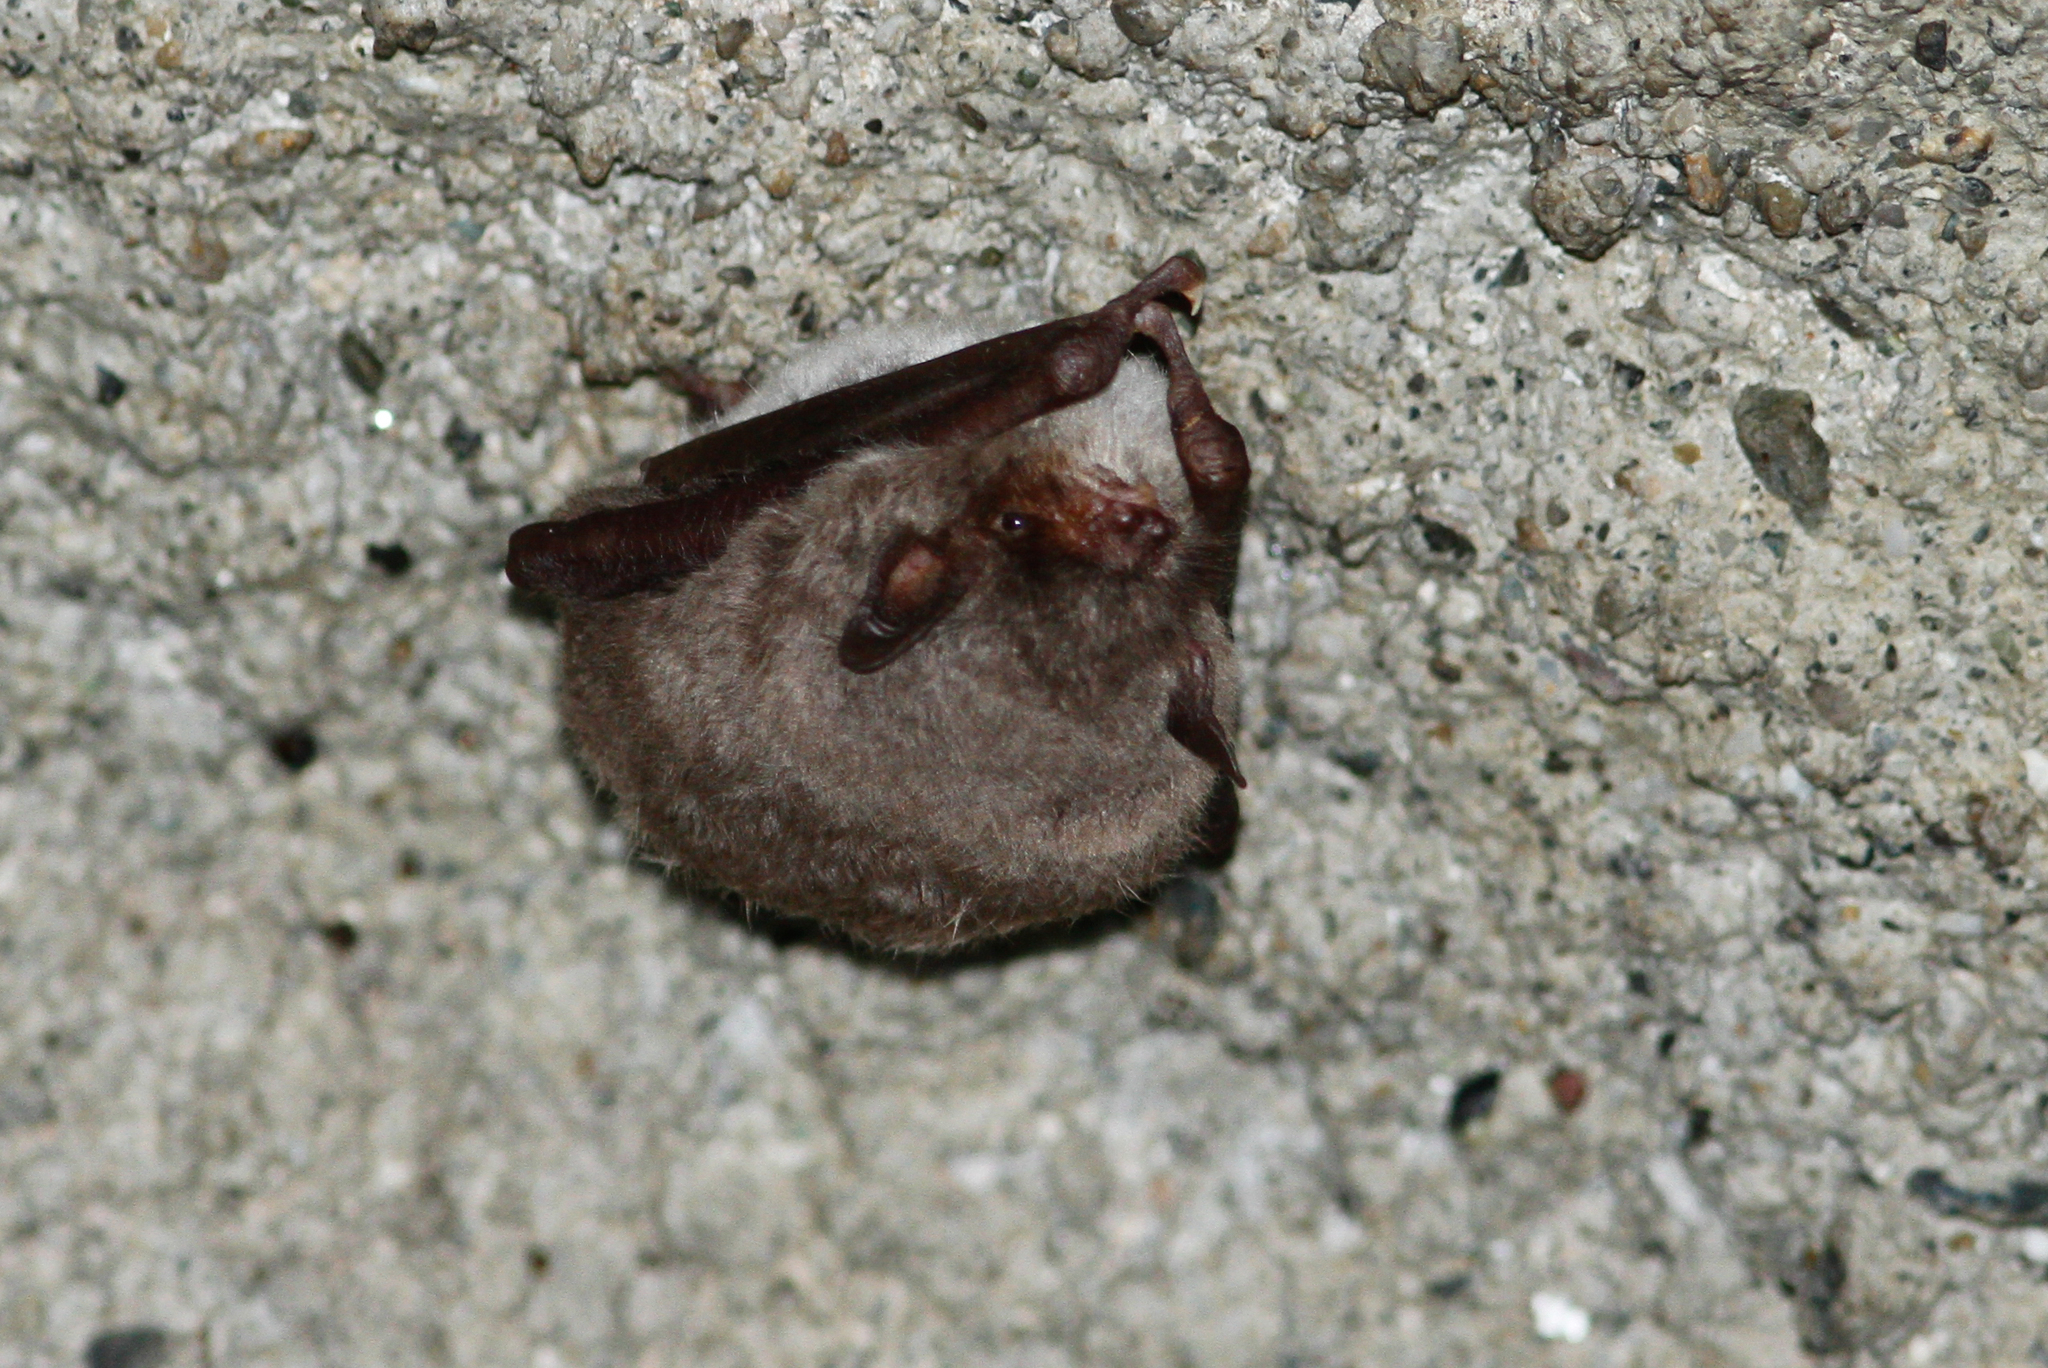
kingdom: Animalia
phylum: Chordata
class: Mammalia
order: Chiroptera
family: Vespertilionidae
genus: Myotis
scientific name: Myotis capaccinii
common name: Long-fingered bat
